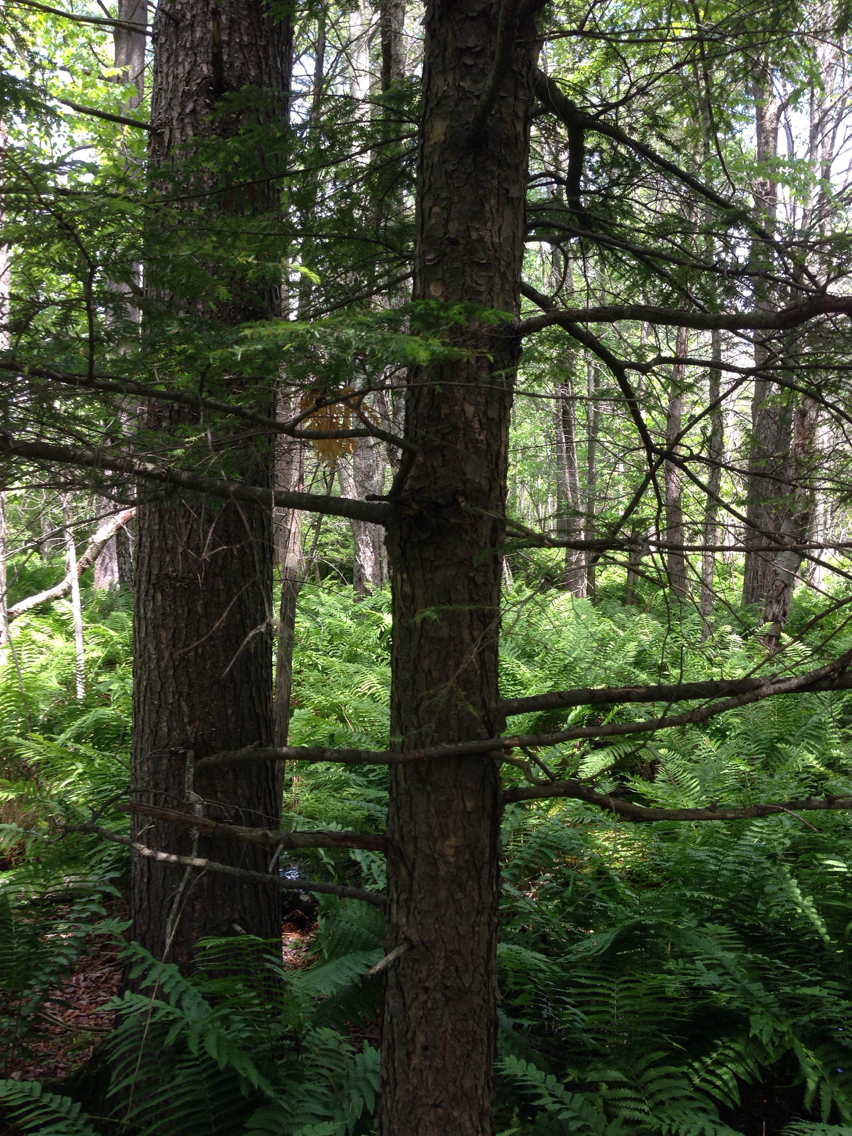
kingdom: Plantae
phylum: Tracheophyta
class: Pinopsida
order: Pinales
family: Pinaceae
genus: Tsuga
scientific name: Tsuga canadensis
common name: Eastern hemlock
